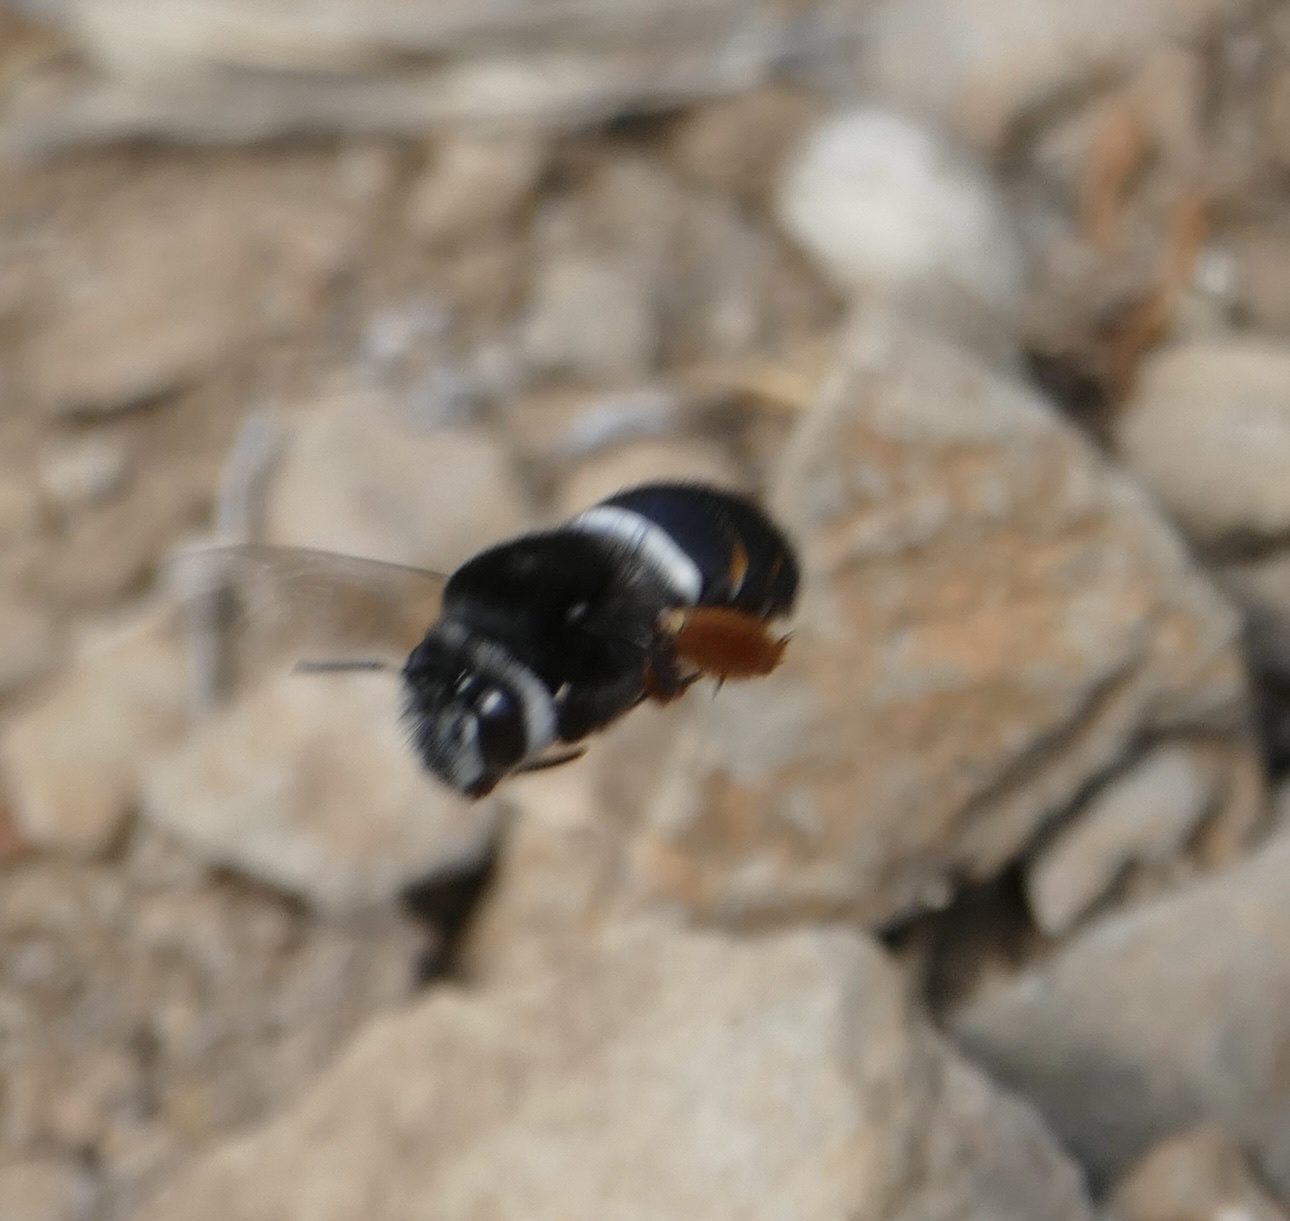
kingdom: Animalia
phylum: Arthropoda
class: Insecta
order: Hymenoptera
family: Apidae
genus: Amegilla
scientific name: Amegilla godofredi
